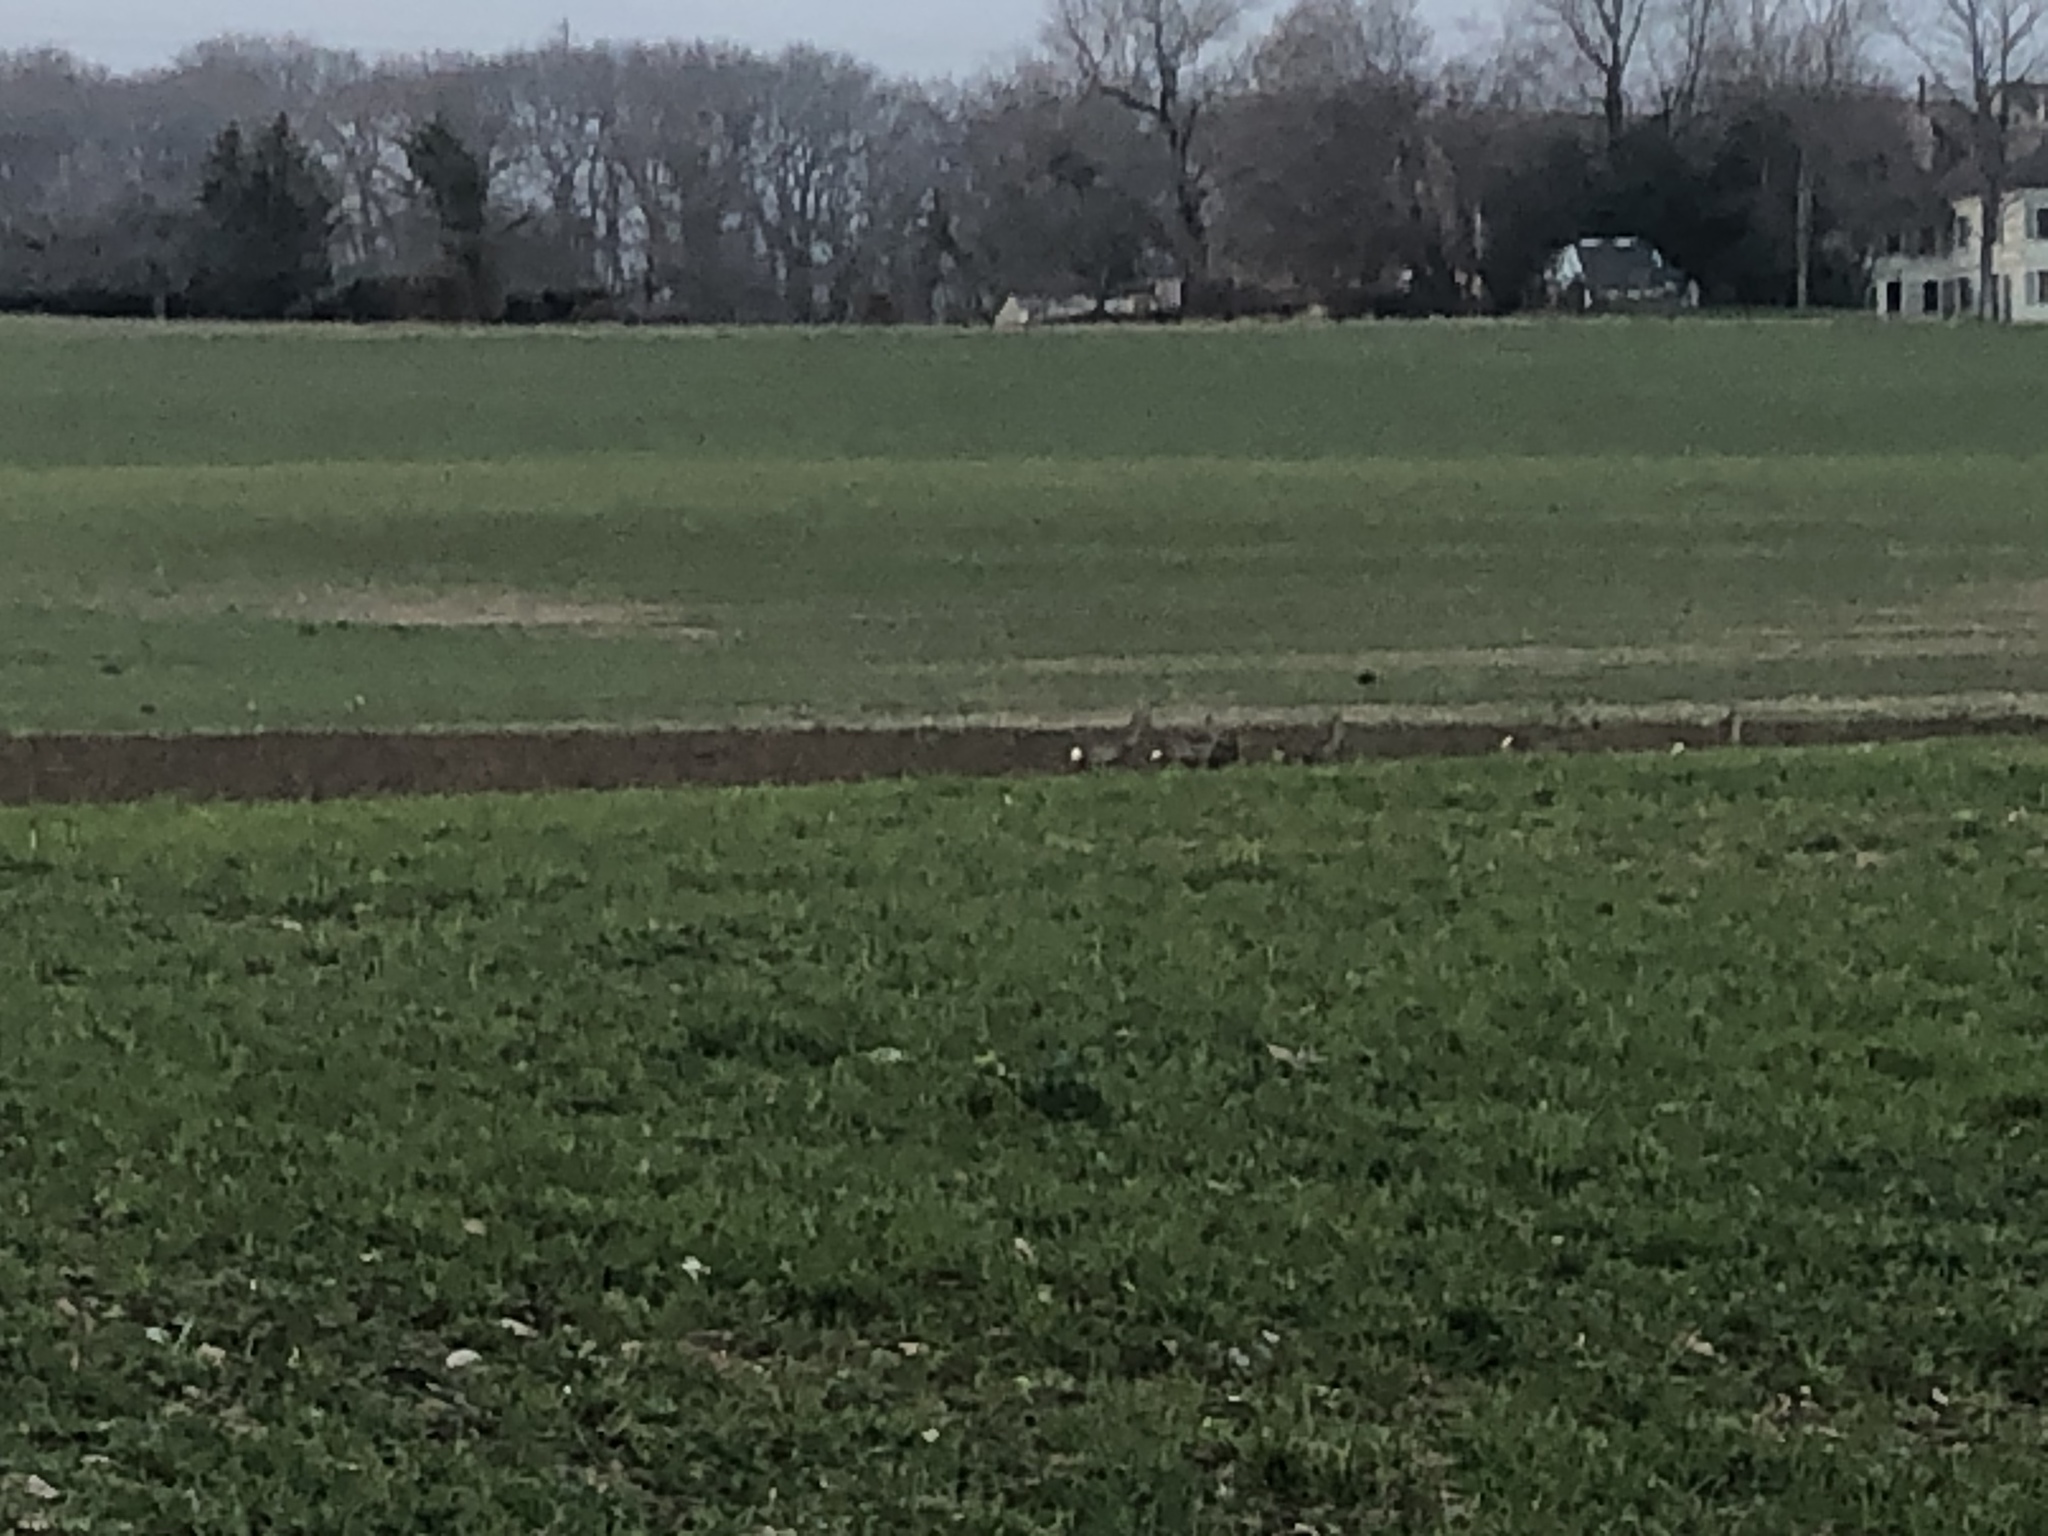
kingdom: Animalia
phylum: Chordata
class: Mammalia
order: Artiodactyla
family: Cervidae
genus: Capreolus
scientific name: Capreolus capreolus
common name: Western roe deer
